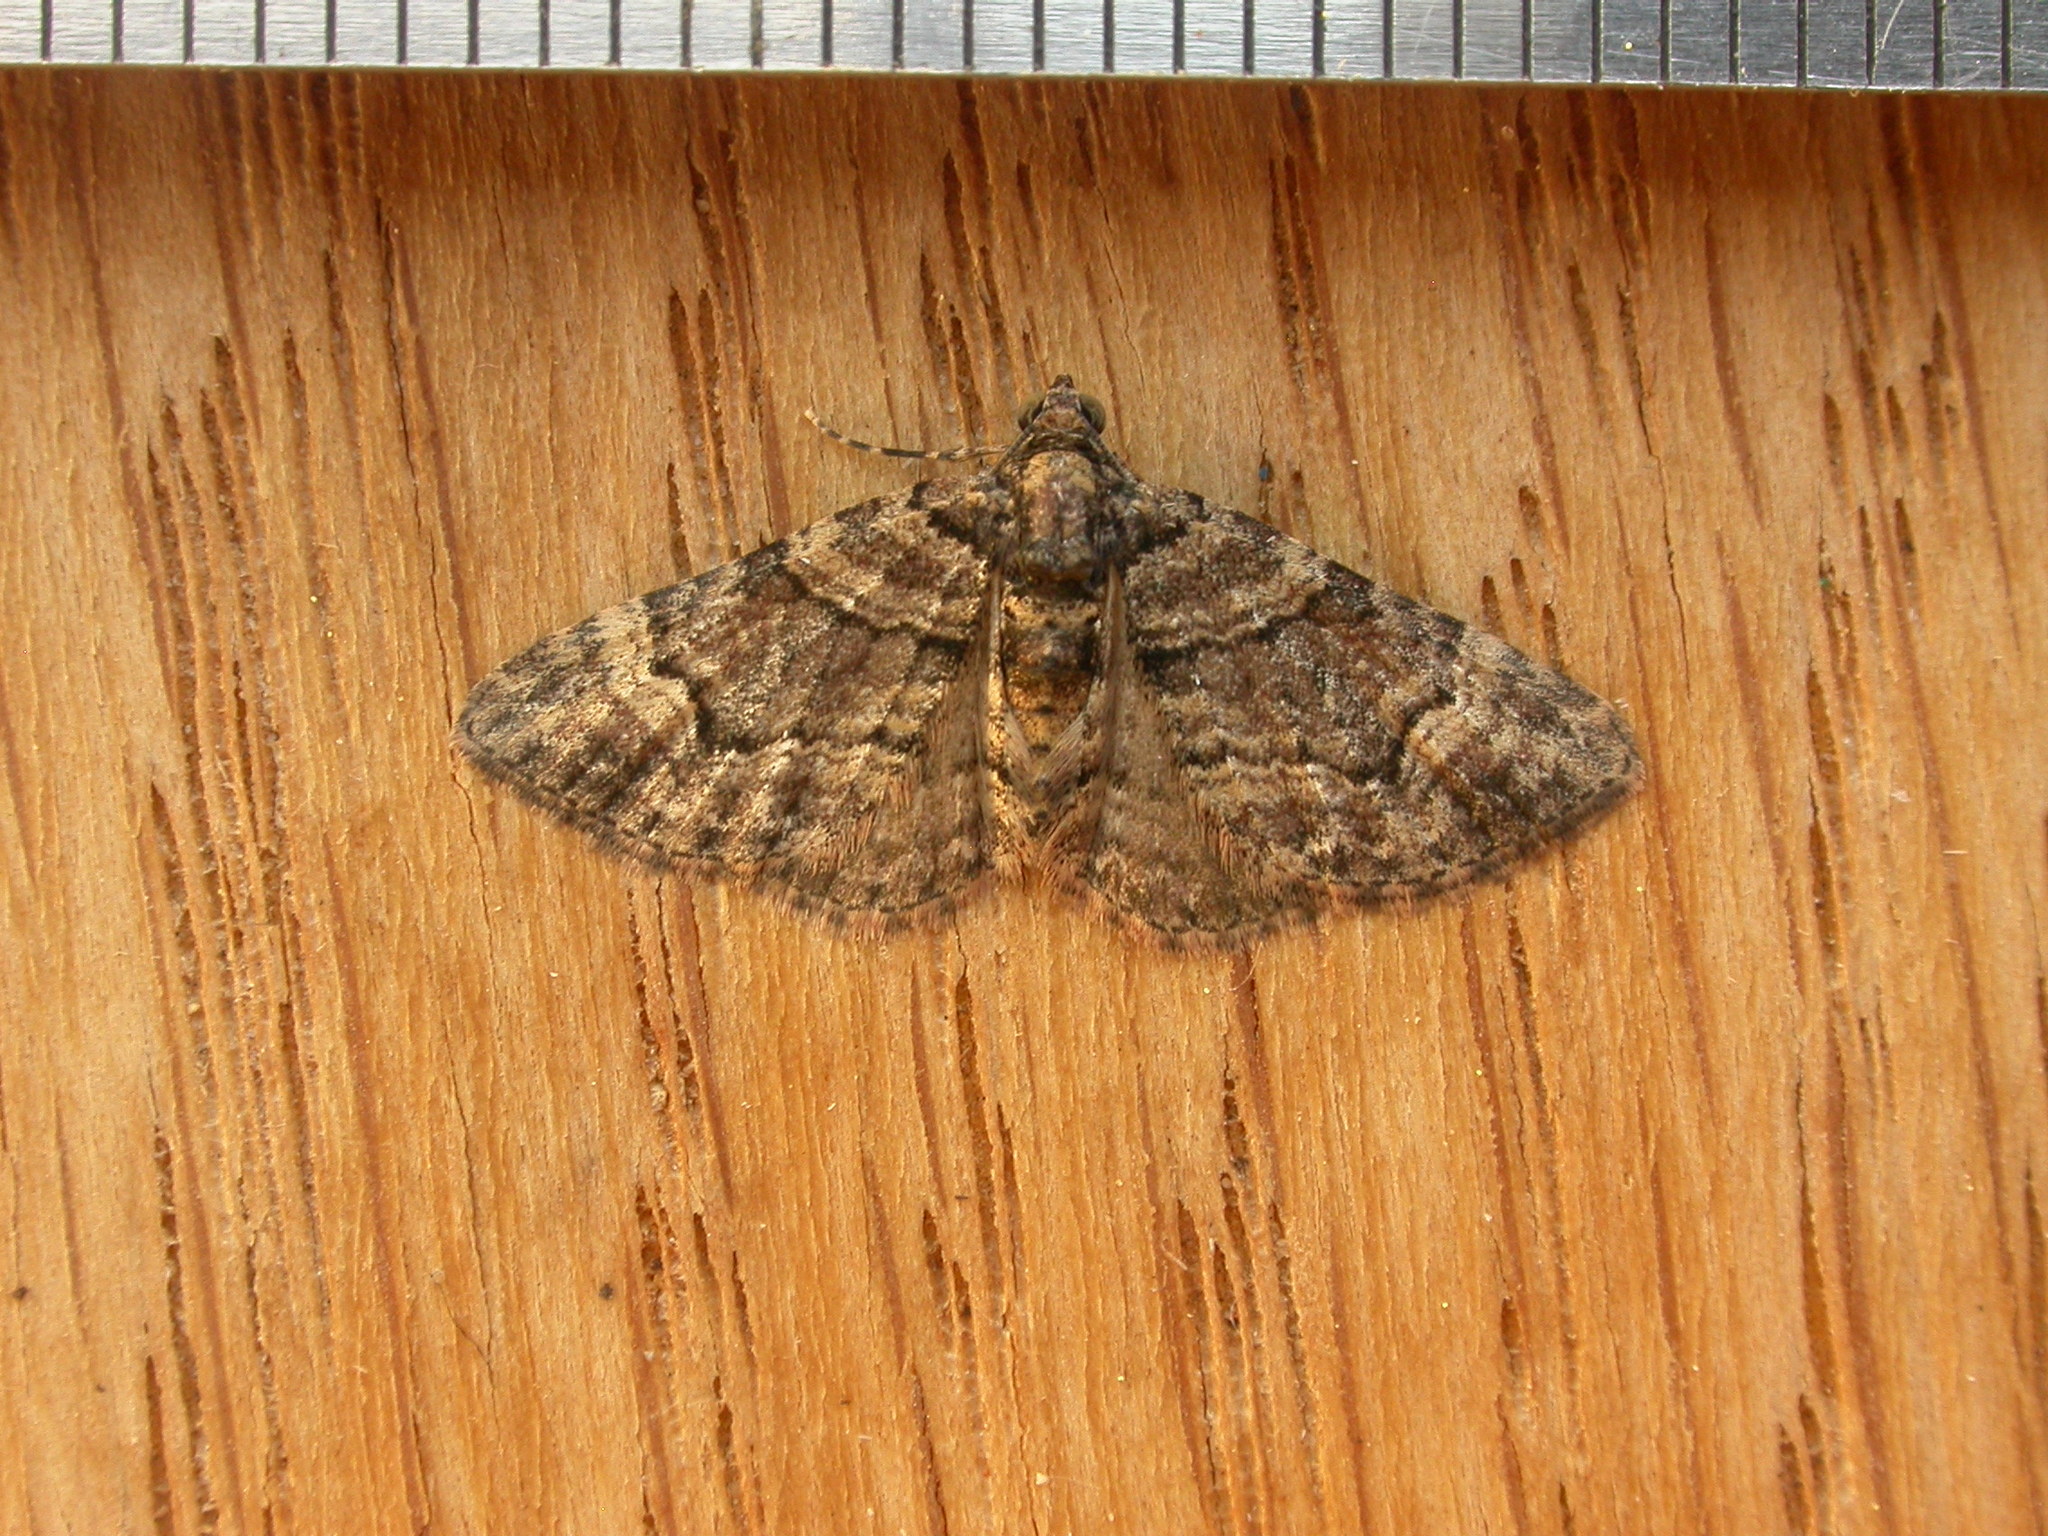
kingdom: Animalia
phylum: Arthropoda
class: Insecta
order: Lepidoptera
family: Geometridae
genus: Epyaxa
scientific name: Epyaxa sodaliata
